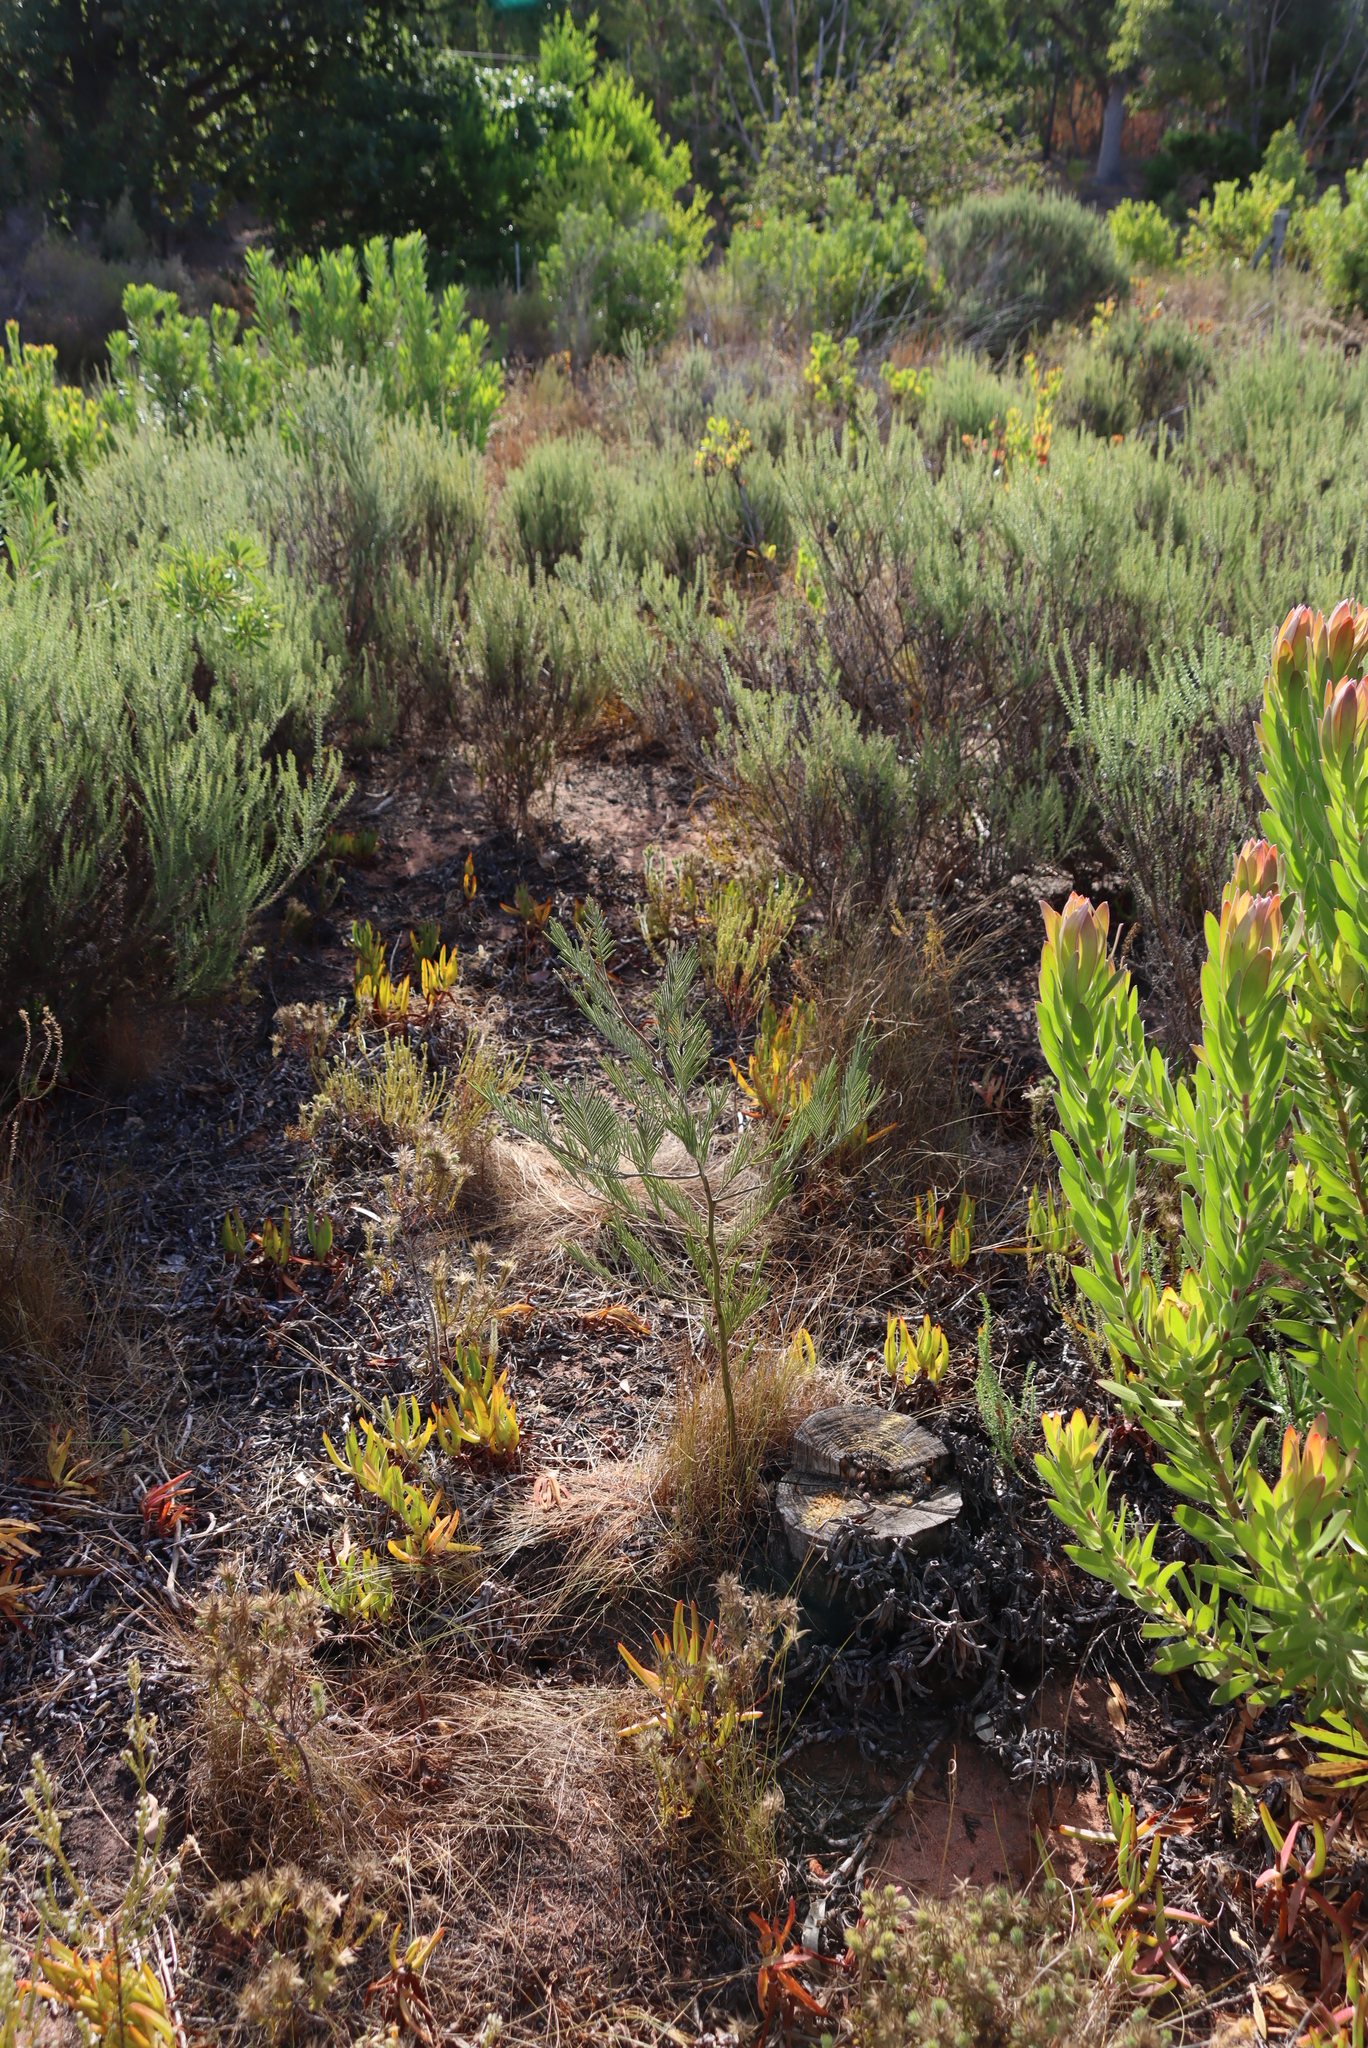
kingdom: Plantae
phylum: Tracheophyta
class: Magnoliopsida
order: Fabales
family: Fabaceae
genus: Acacia
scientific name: Acacia mearnsii
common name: Black wattle
